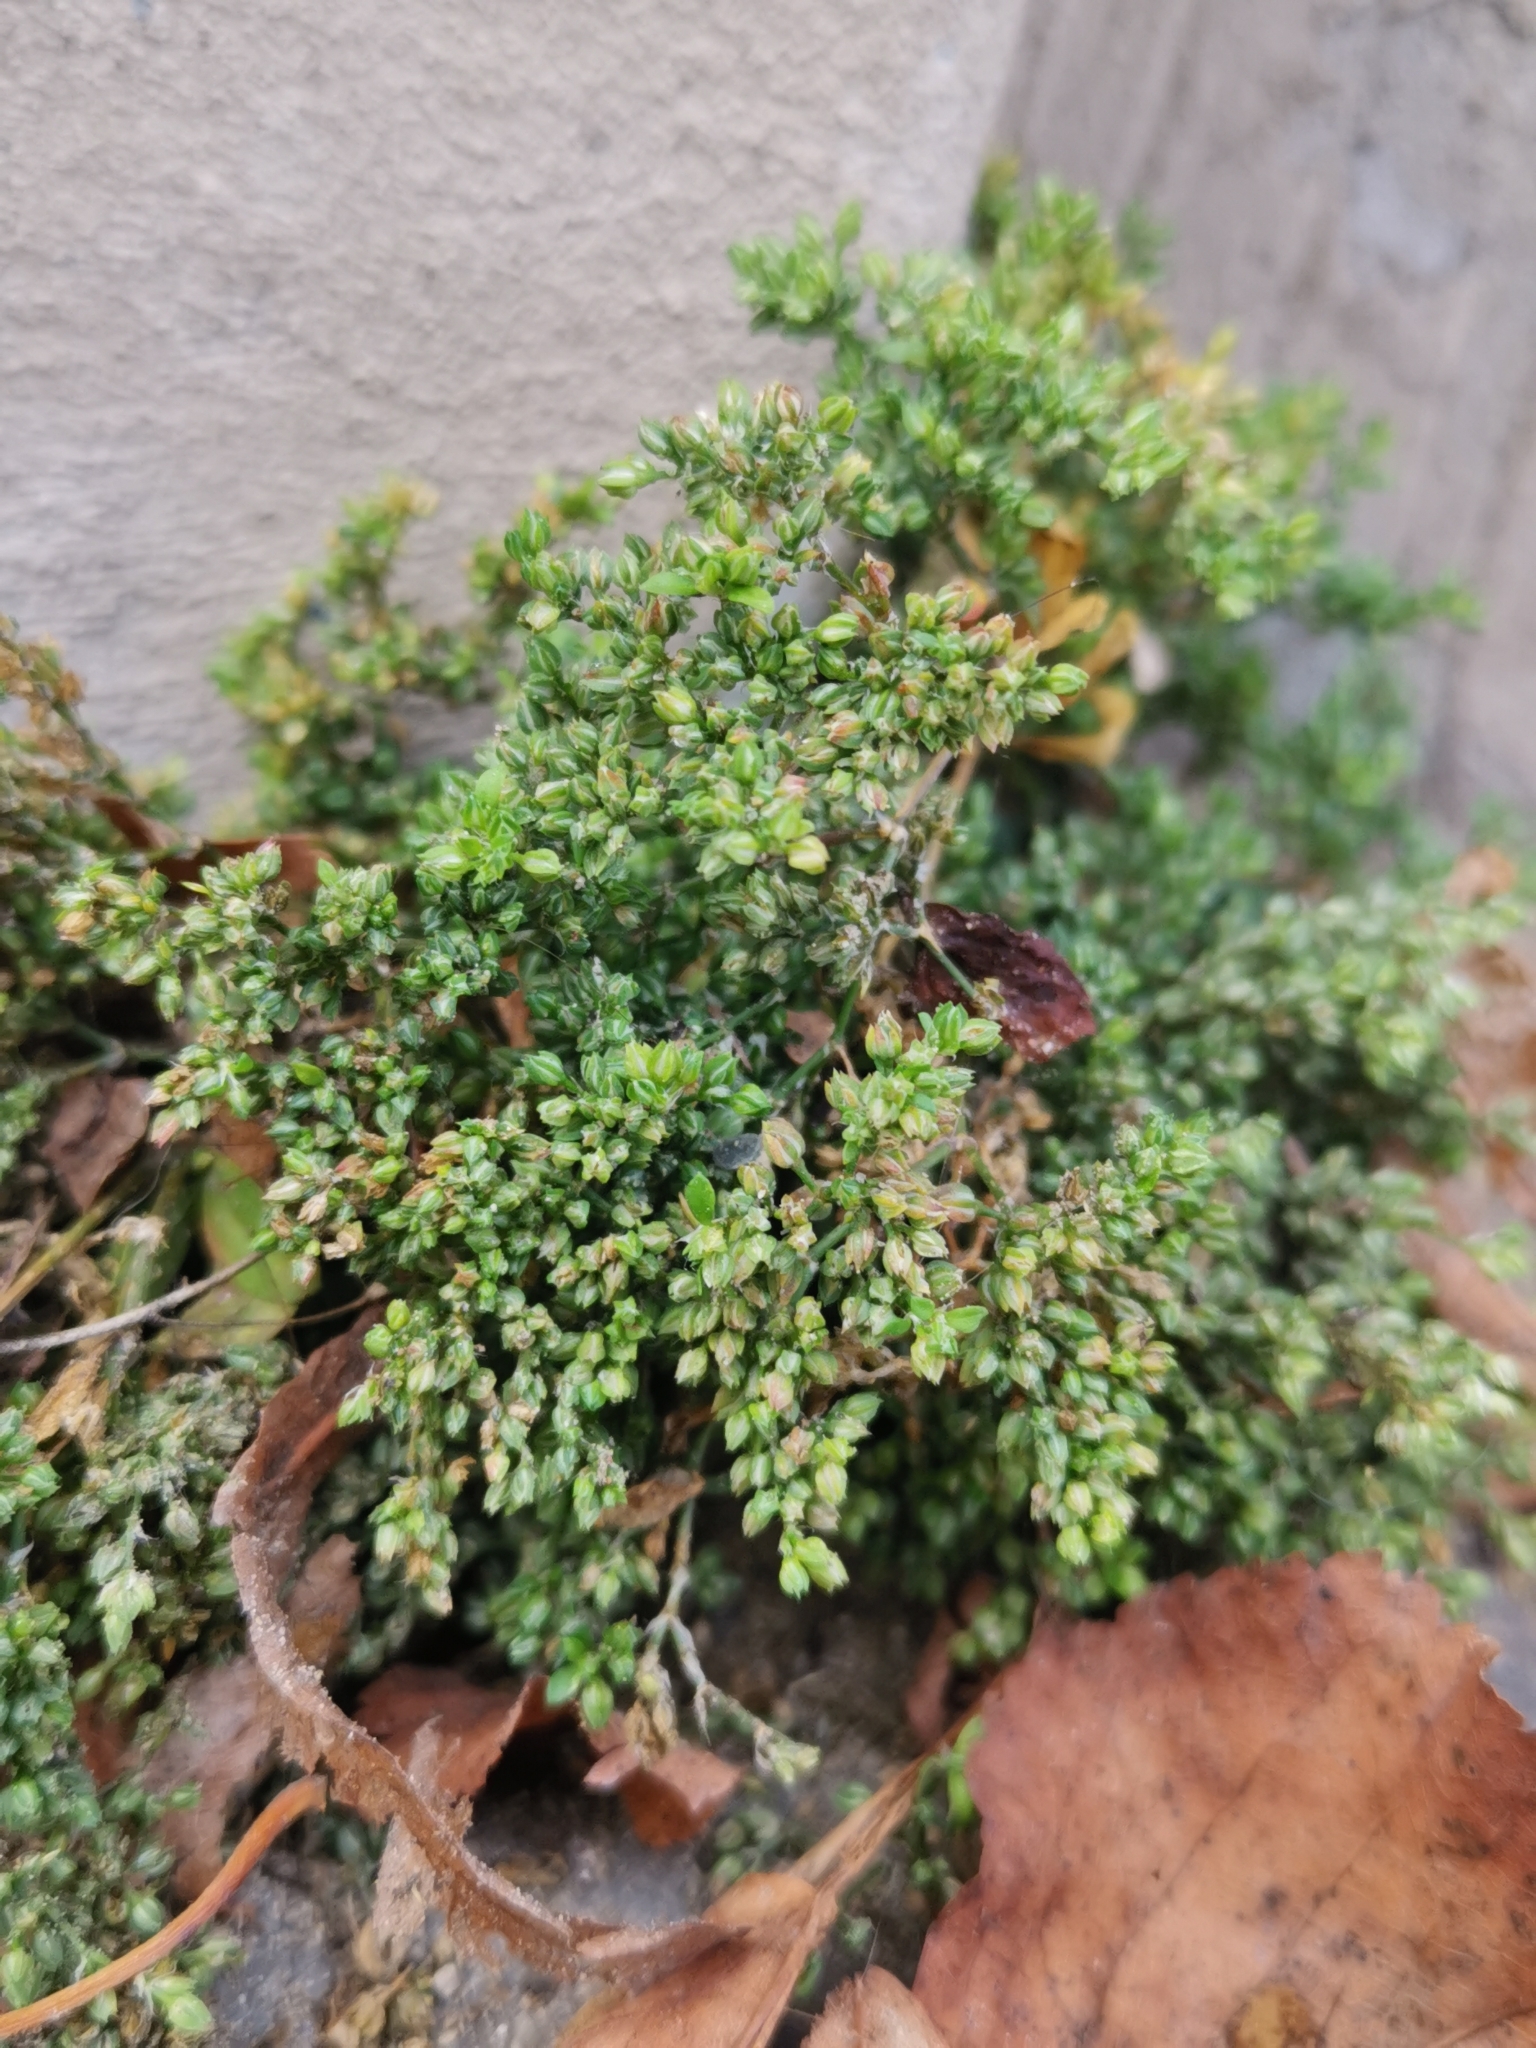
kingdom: Plantae
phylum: Tracheophyta
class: Magnoliopsida
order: Caryophyllales
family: Caryophyllaceae
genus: Polycarpon
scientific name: Polycarpon tetraphyllum
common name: Four-leaved all-seed
